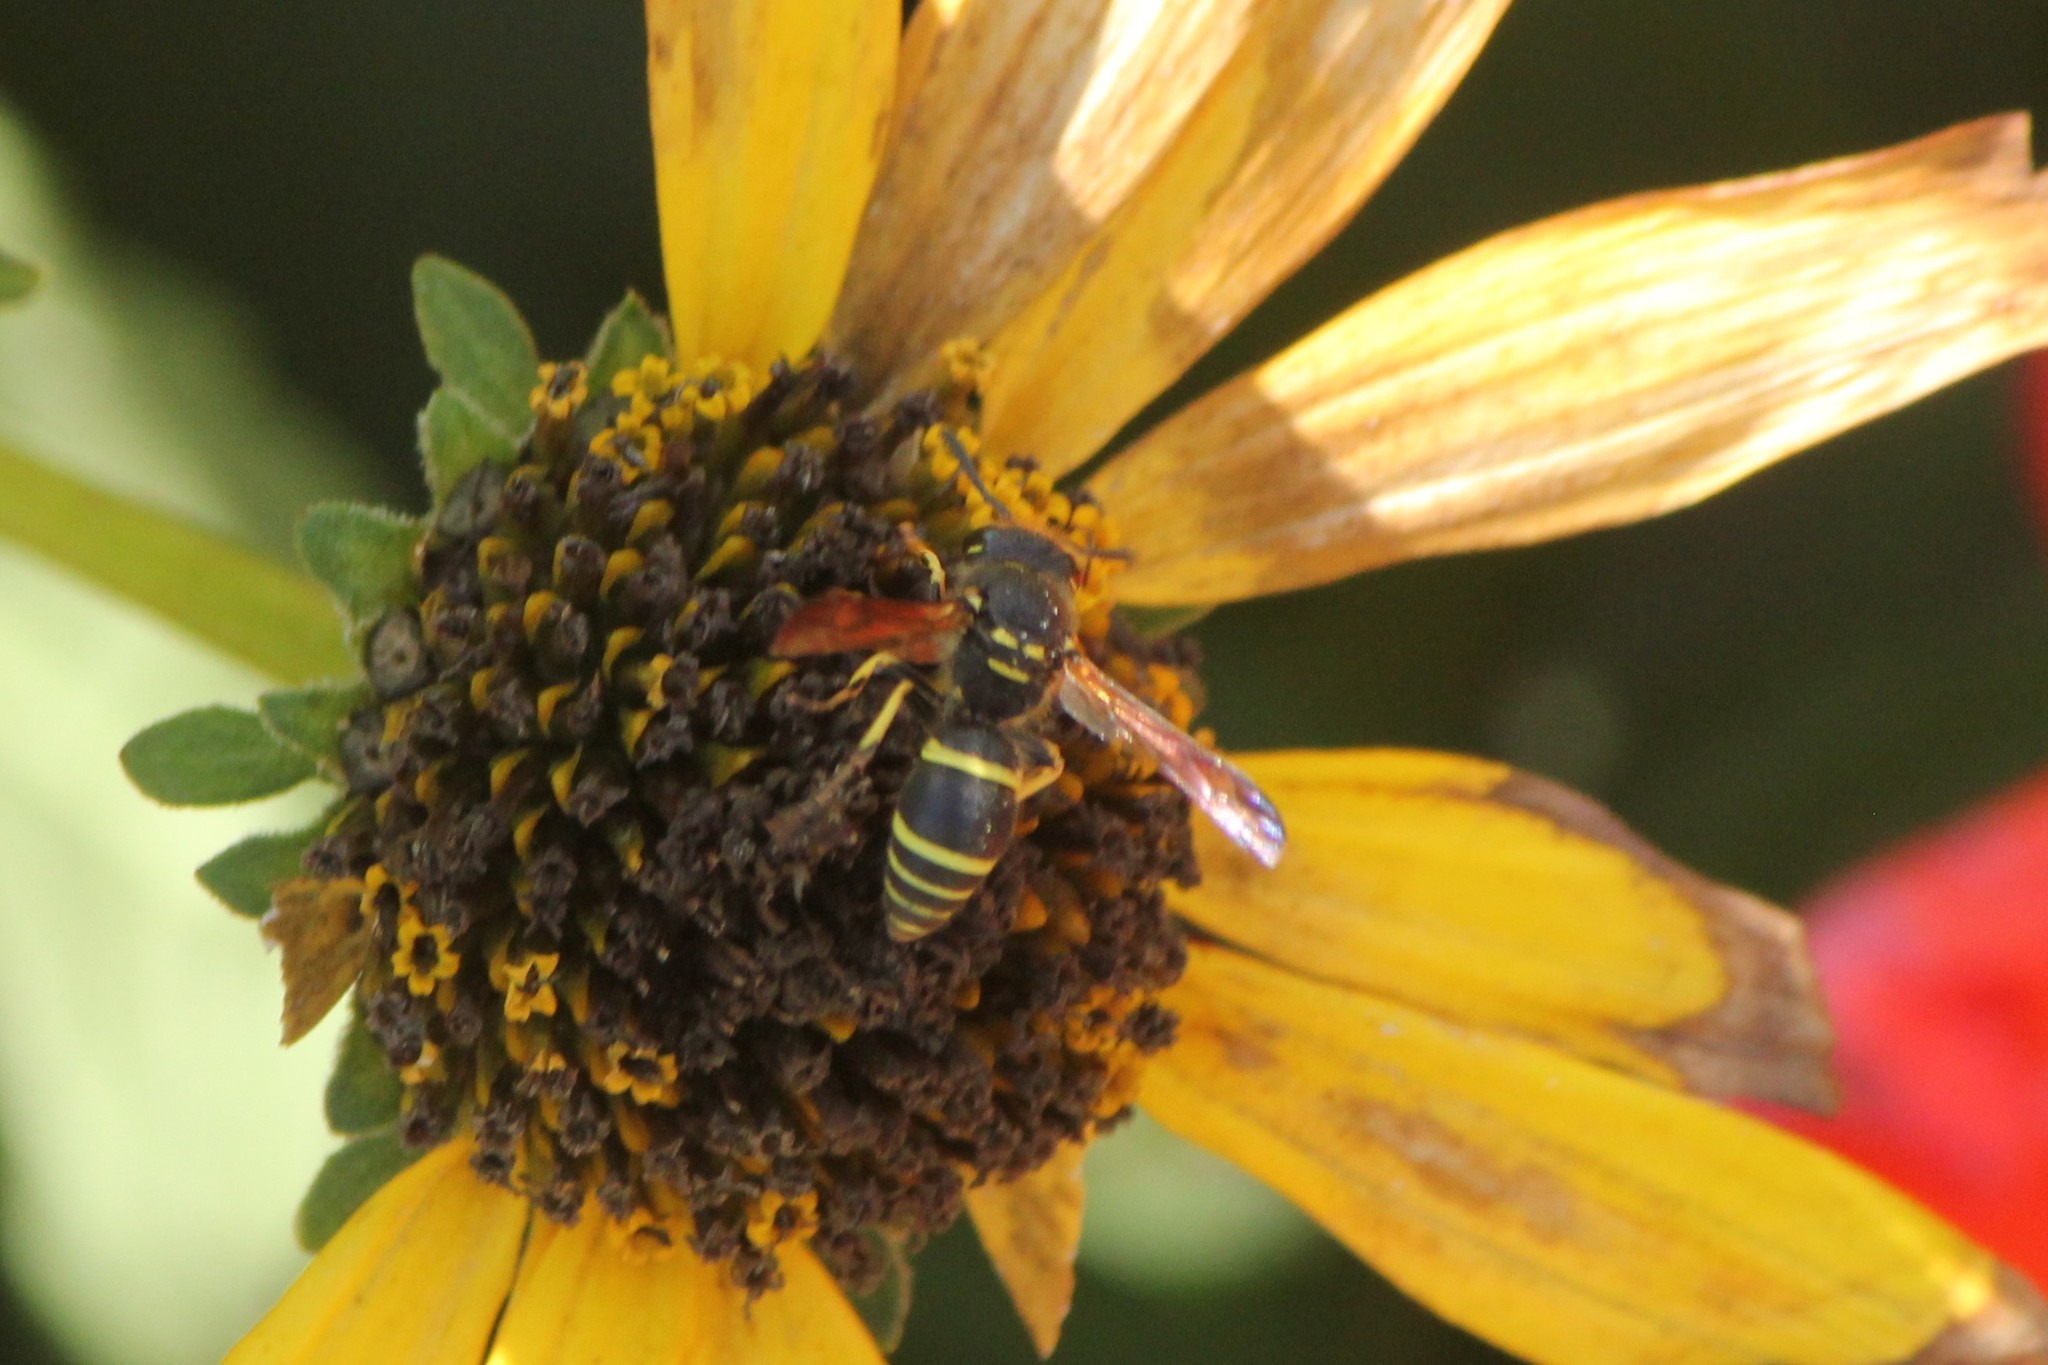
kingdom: Animalia
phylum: Arthropoda
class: Insecta
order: Hymenoptera
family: Vespidae
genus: Ancistrocerus
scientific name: Ancistrocerus catskill
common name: Vespid wasp
